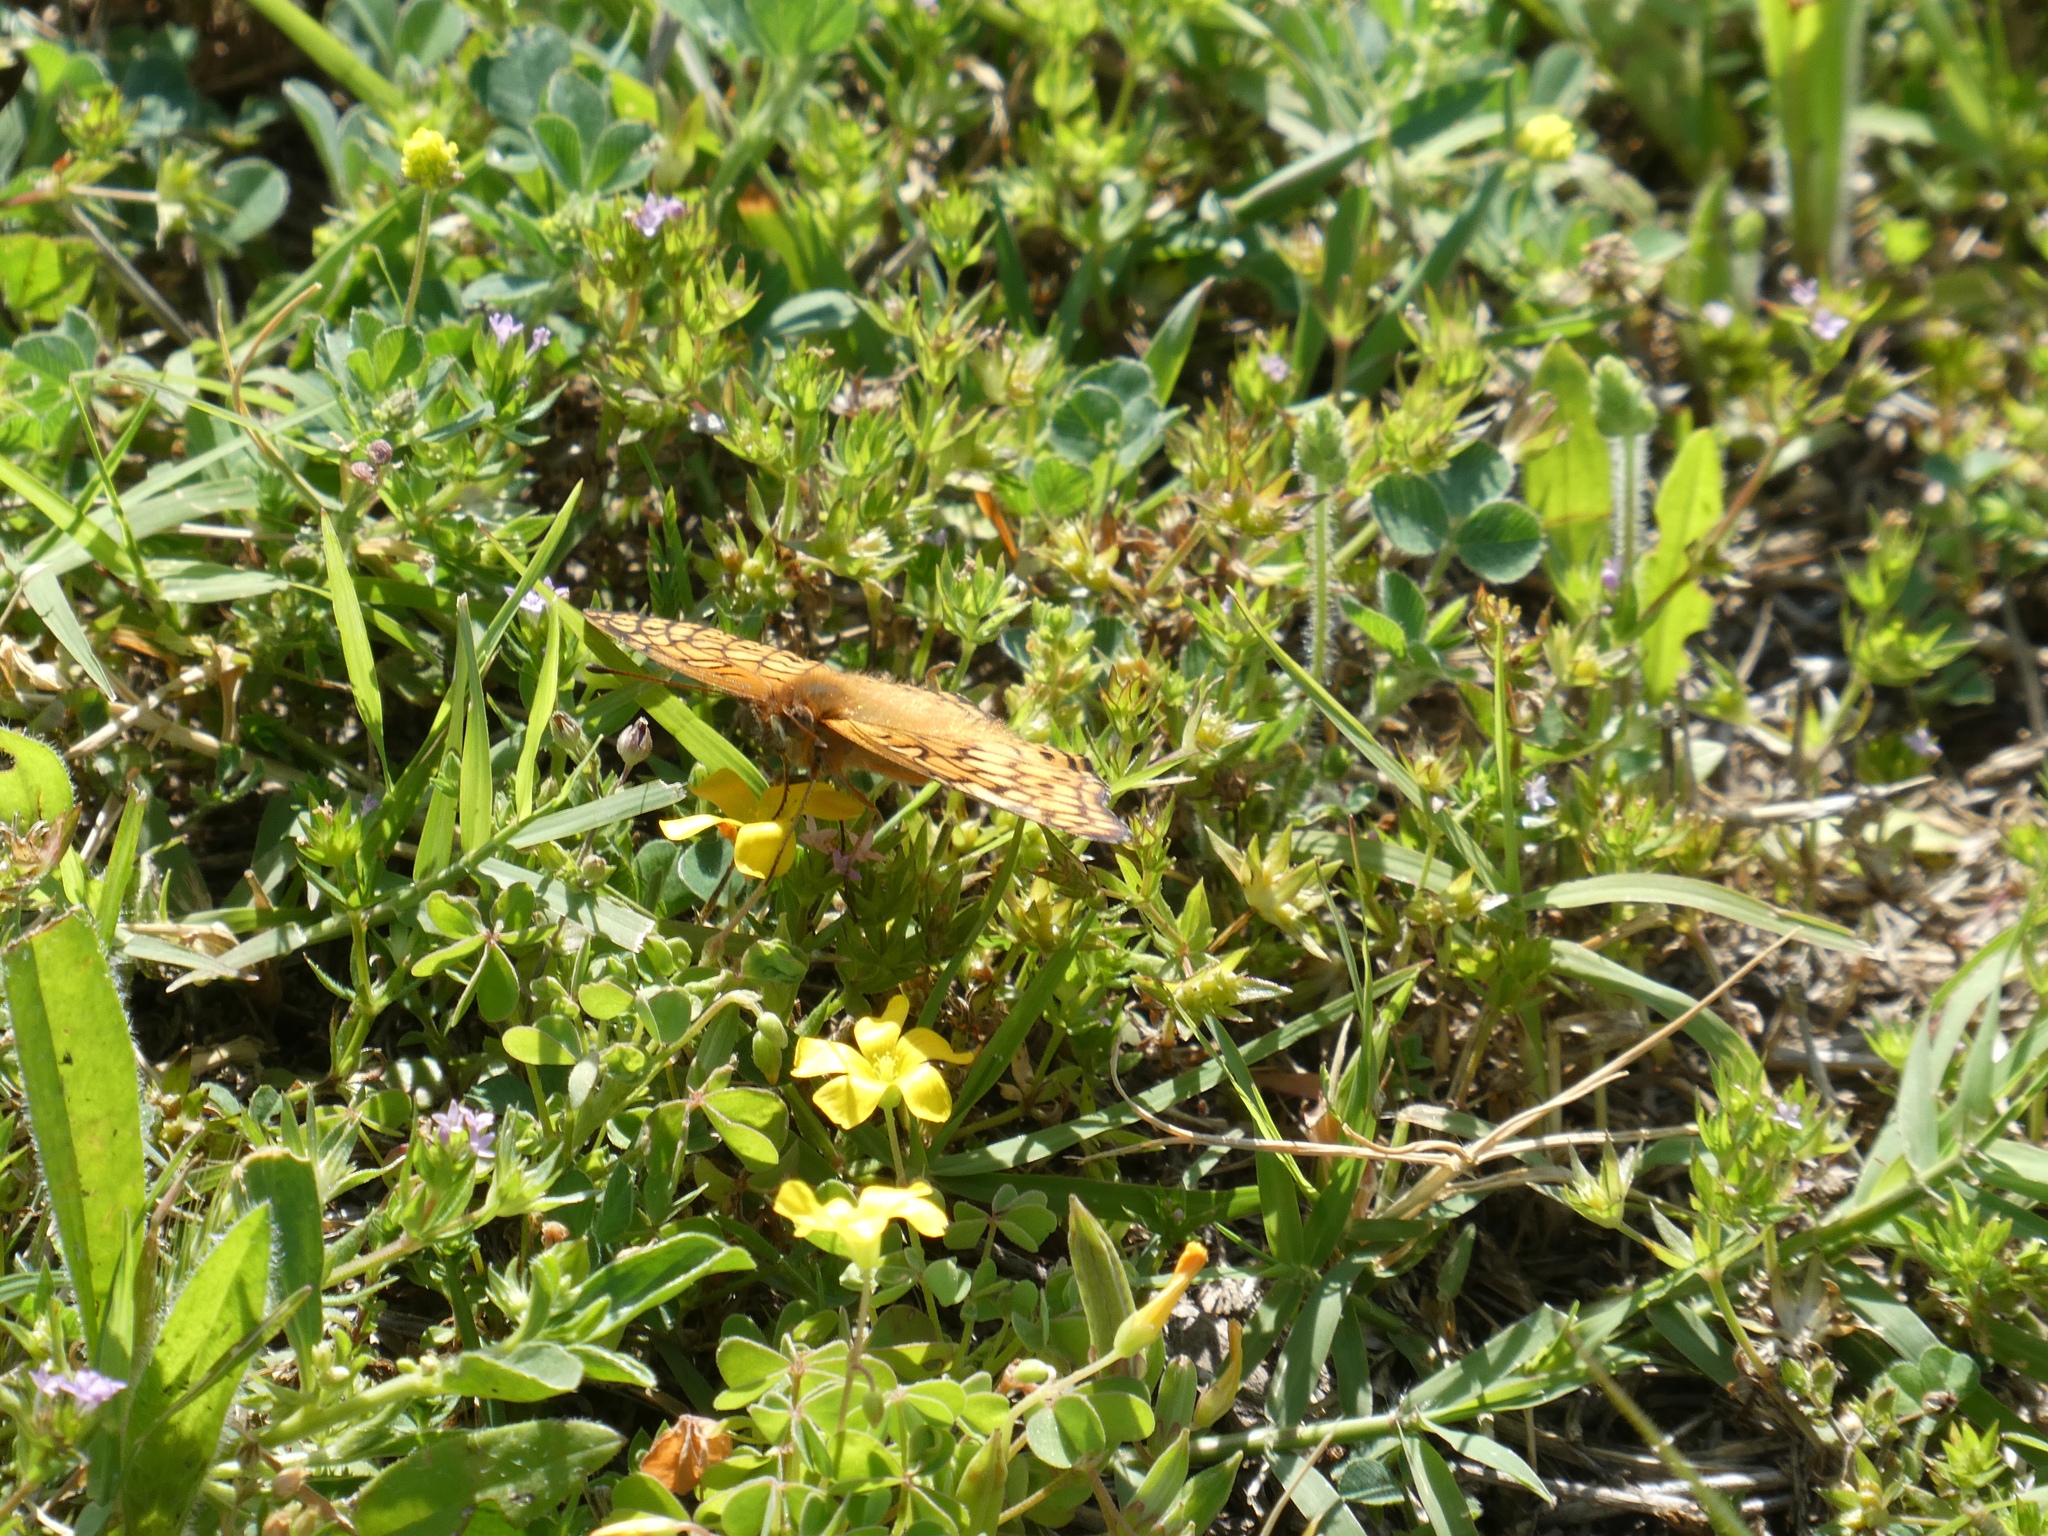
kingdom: Animalia
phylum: Arthropoda
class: Insecta
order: Lepidoptera
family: Nymphalidae
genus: Euptoieta
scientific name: Euptoieta claudia
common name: Variegated fritillary
